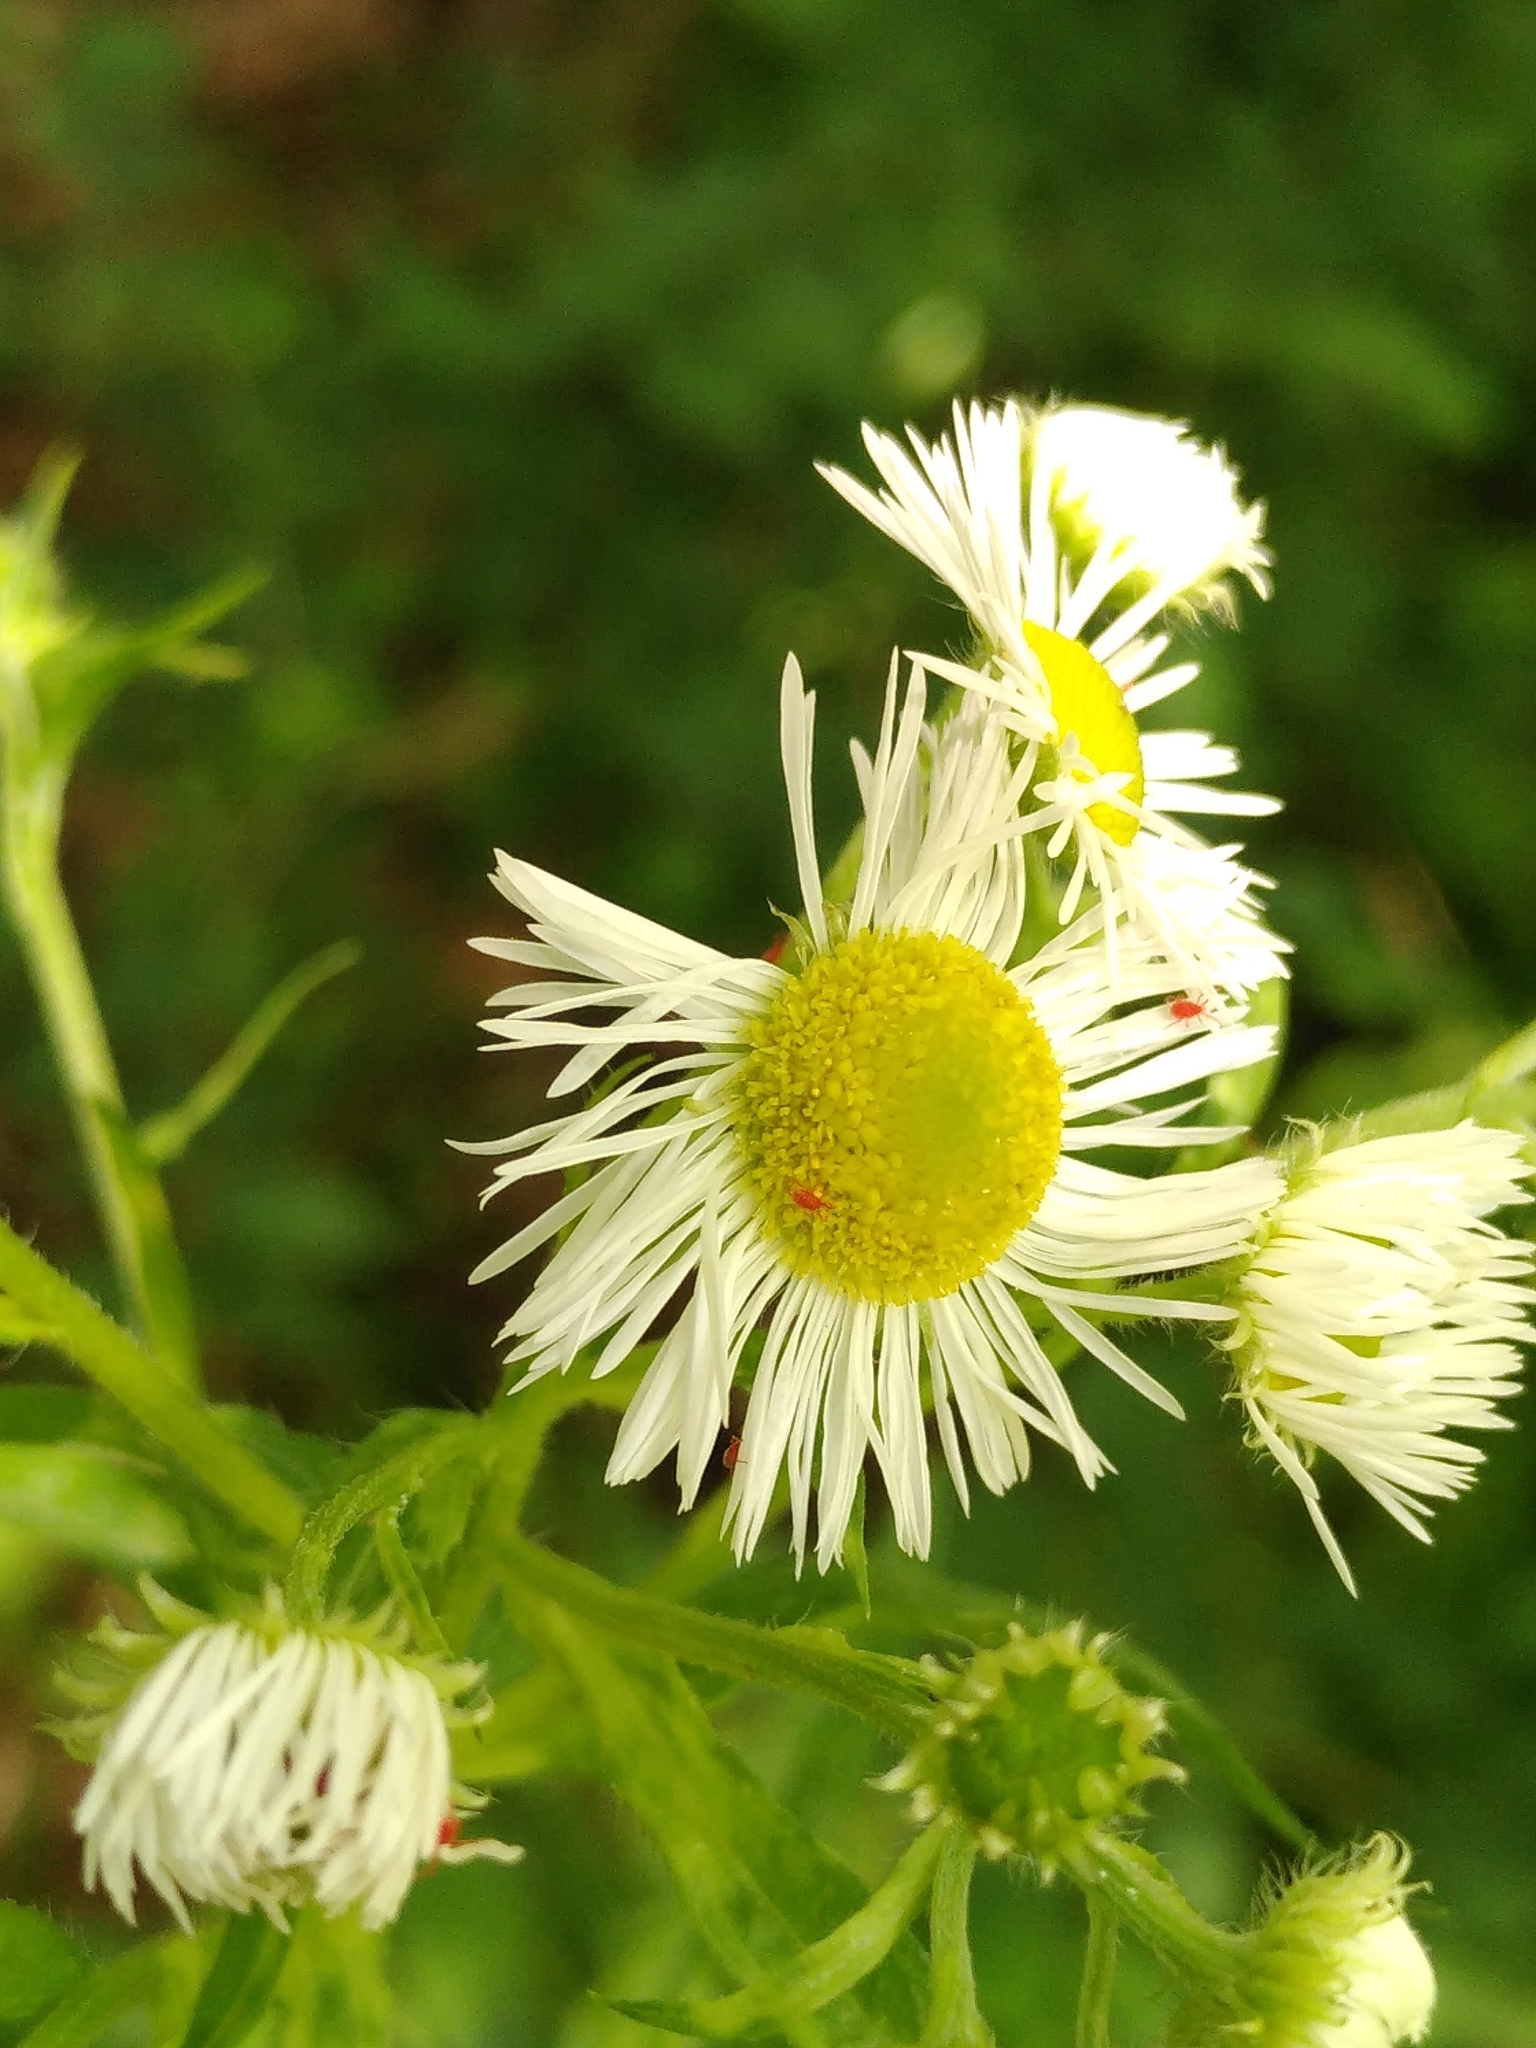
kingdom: Plantae
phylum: Tracheophyta
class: Magnoliopsida
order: Asterales
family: Asteraceae
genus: Erigeron
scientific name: Erigeron annuus
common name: Tall fleabane
